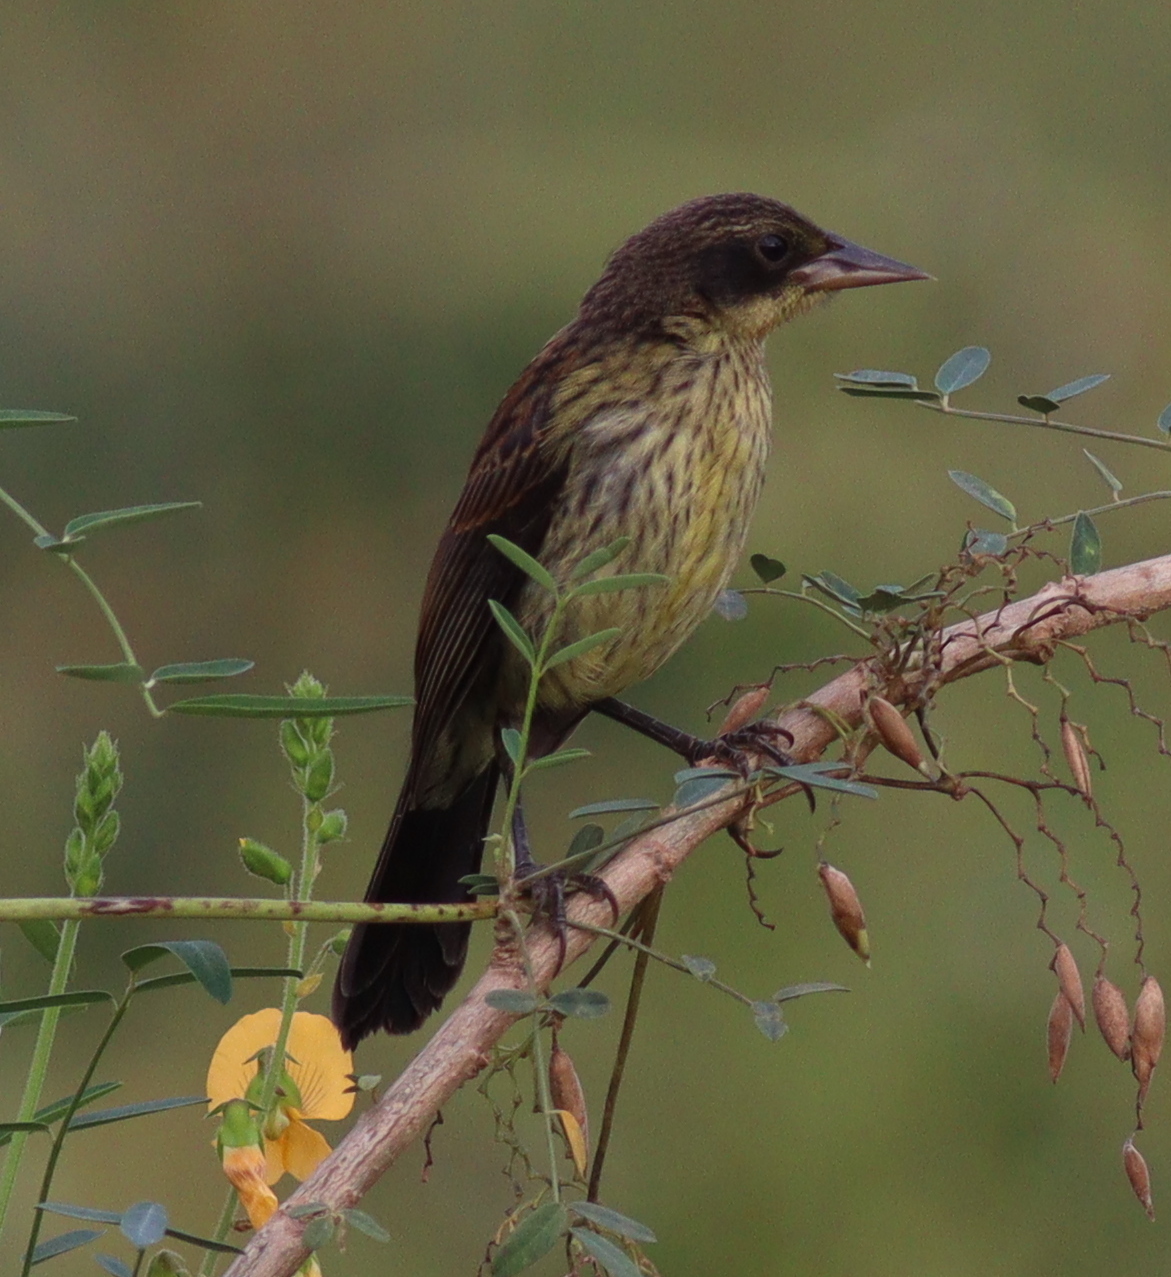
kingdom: Animalia
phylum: Chordata
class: Aves
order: Passeriformes
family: Icteridae
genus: Agelasticus
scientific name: Agelasticus cyanopus
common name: Unicolored blackbird
